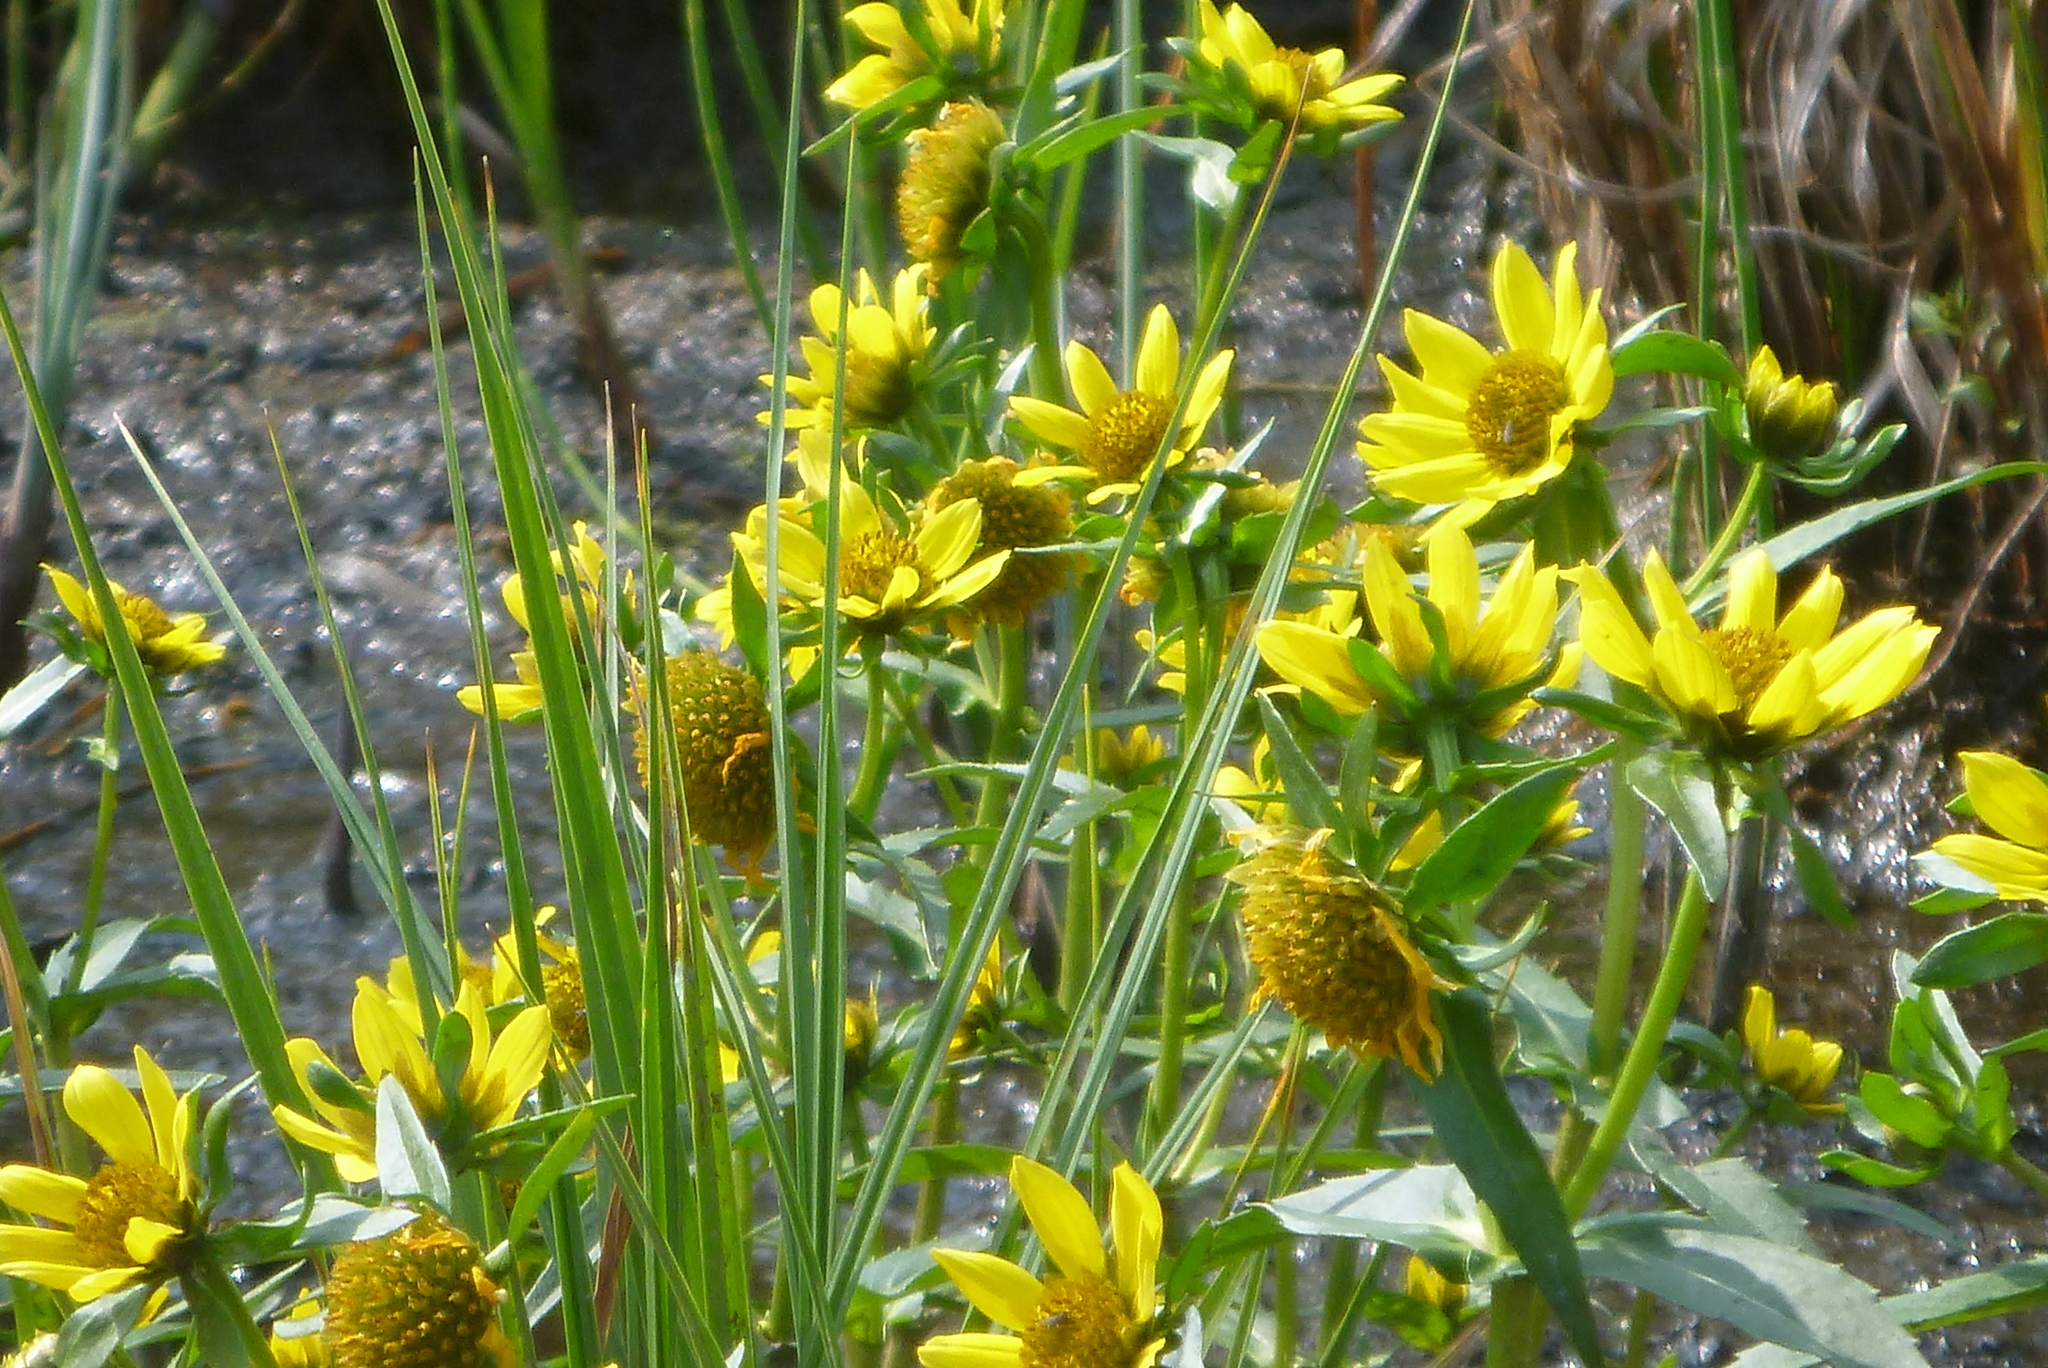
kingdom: Plantae
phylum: Tracheophyta
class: Magnoliopsida
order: Asterales
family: Asteraceae
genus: Bidens
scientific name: Bidens cernua
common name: Nodding bur-marigold
